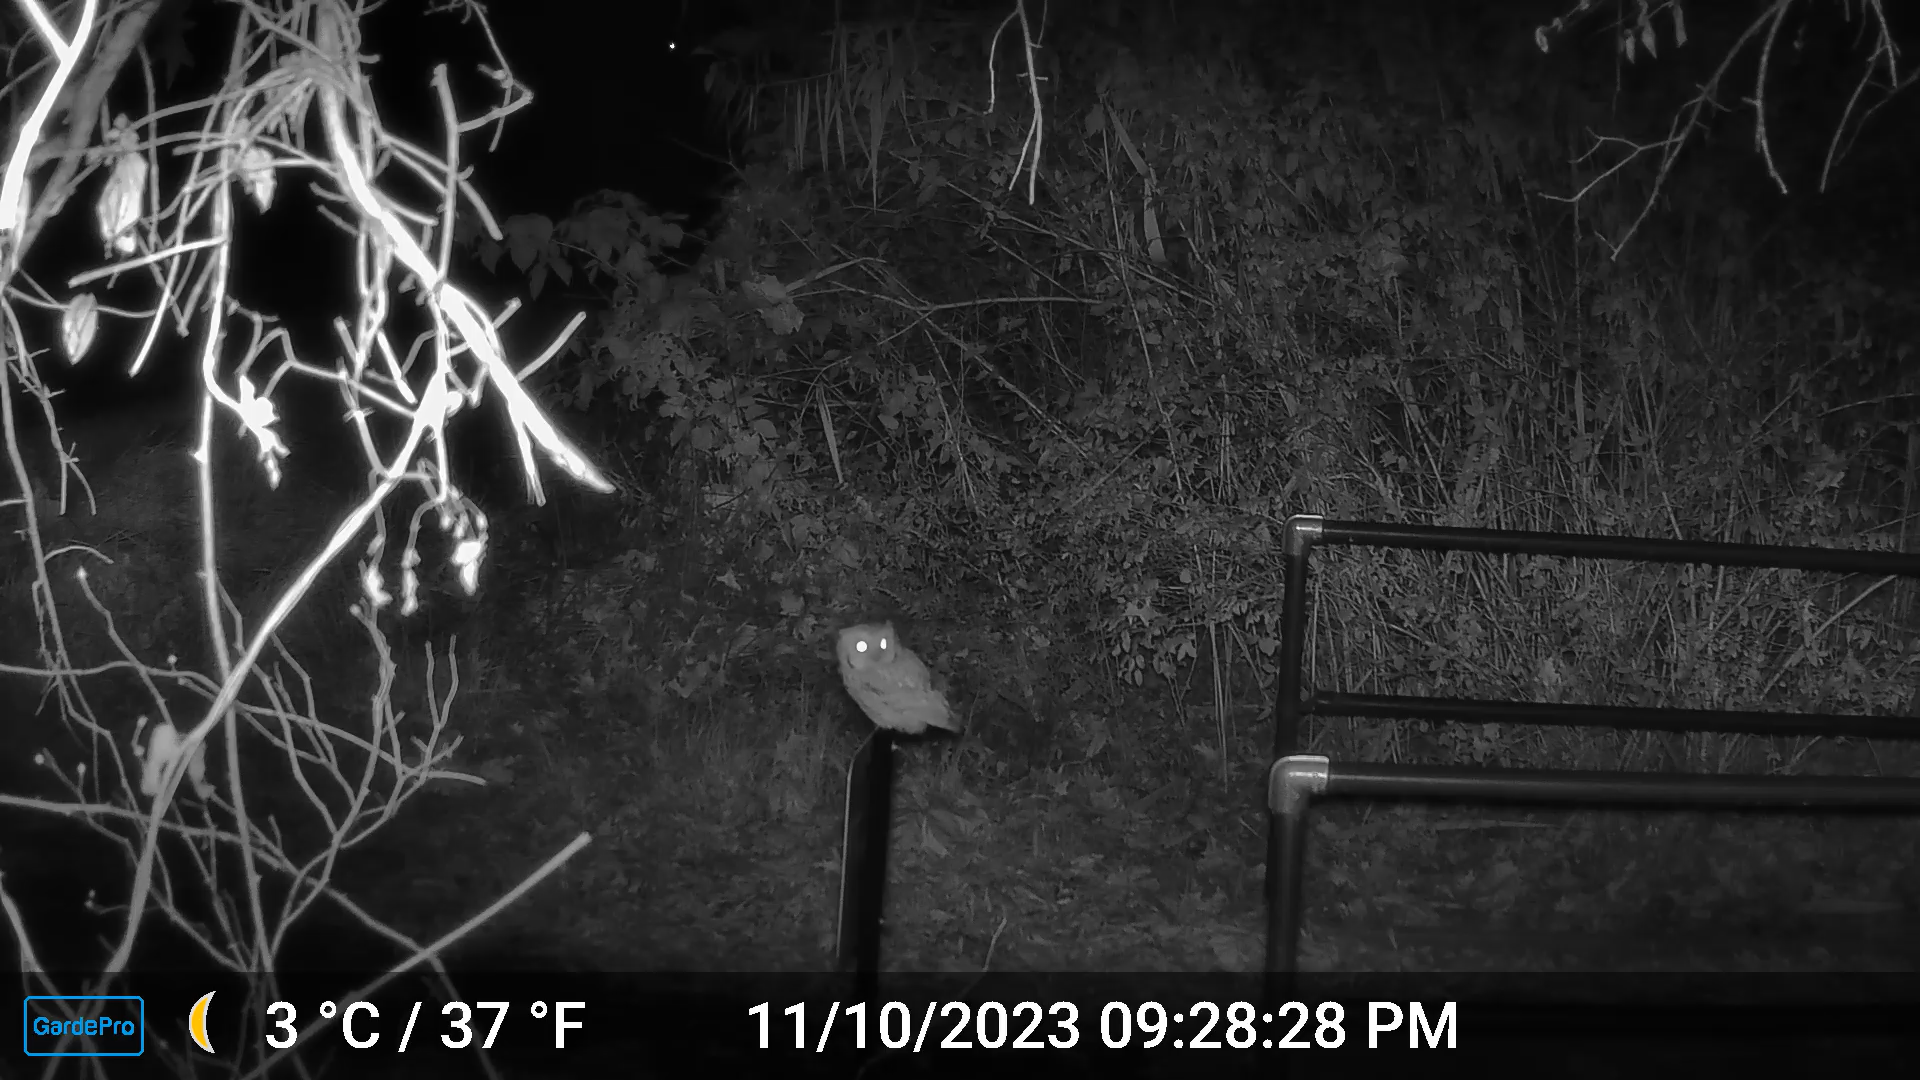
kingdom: Animalia
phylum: Chordata
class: Aves
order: Strigiformes
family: Strigidae
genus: Megascops
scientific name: Megascops asio
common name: Eastern screech-owl
